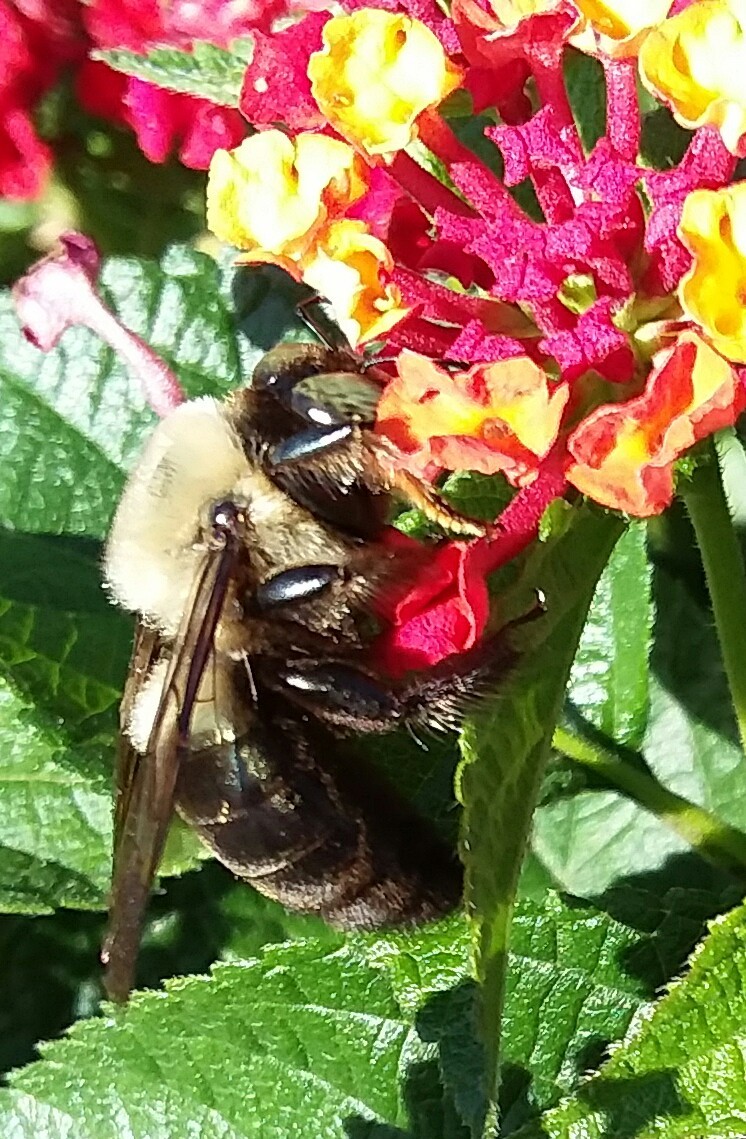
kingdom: Animalia
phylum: Arthropoda
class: Insecta
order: Hymenoptera
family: Apidae
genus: Xylocopa
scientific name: Xylocopa virginica
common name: Carpenter bee
